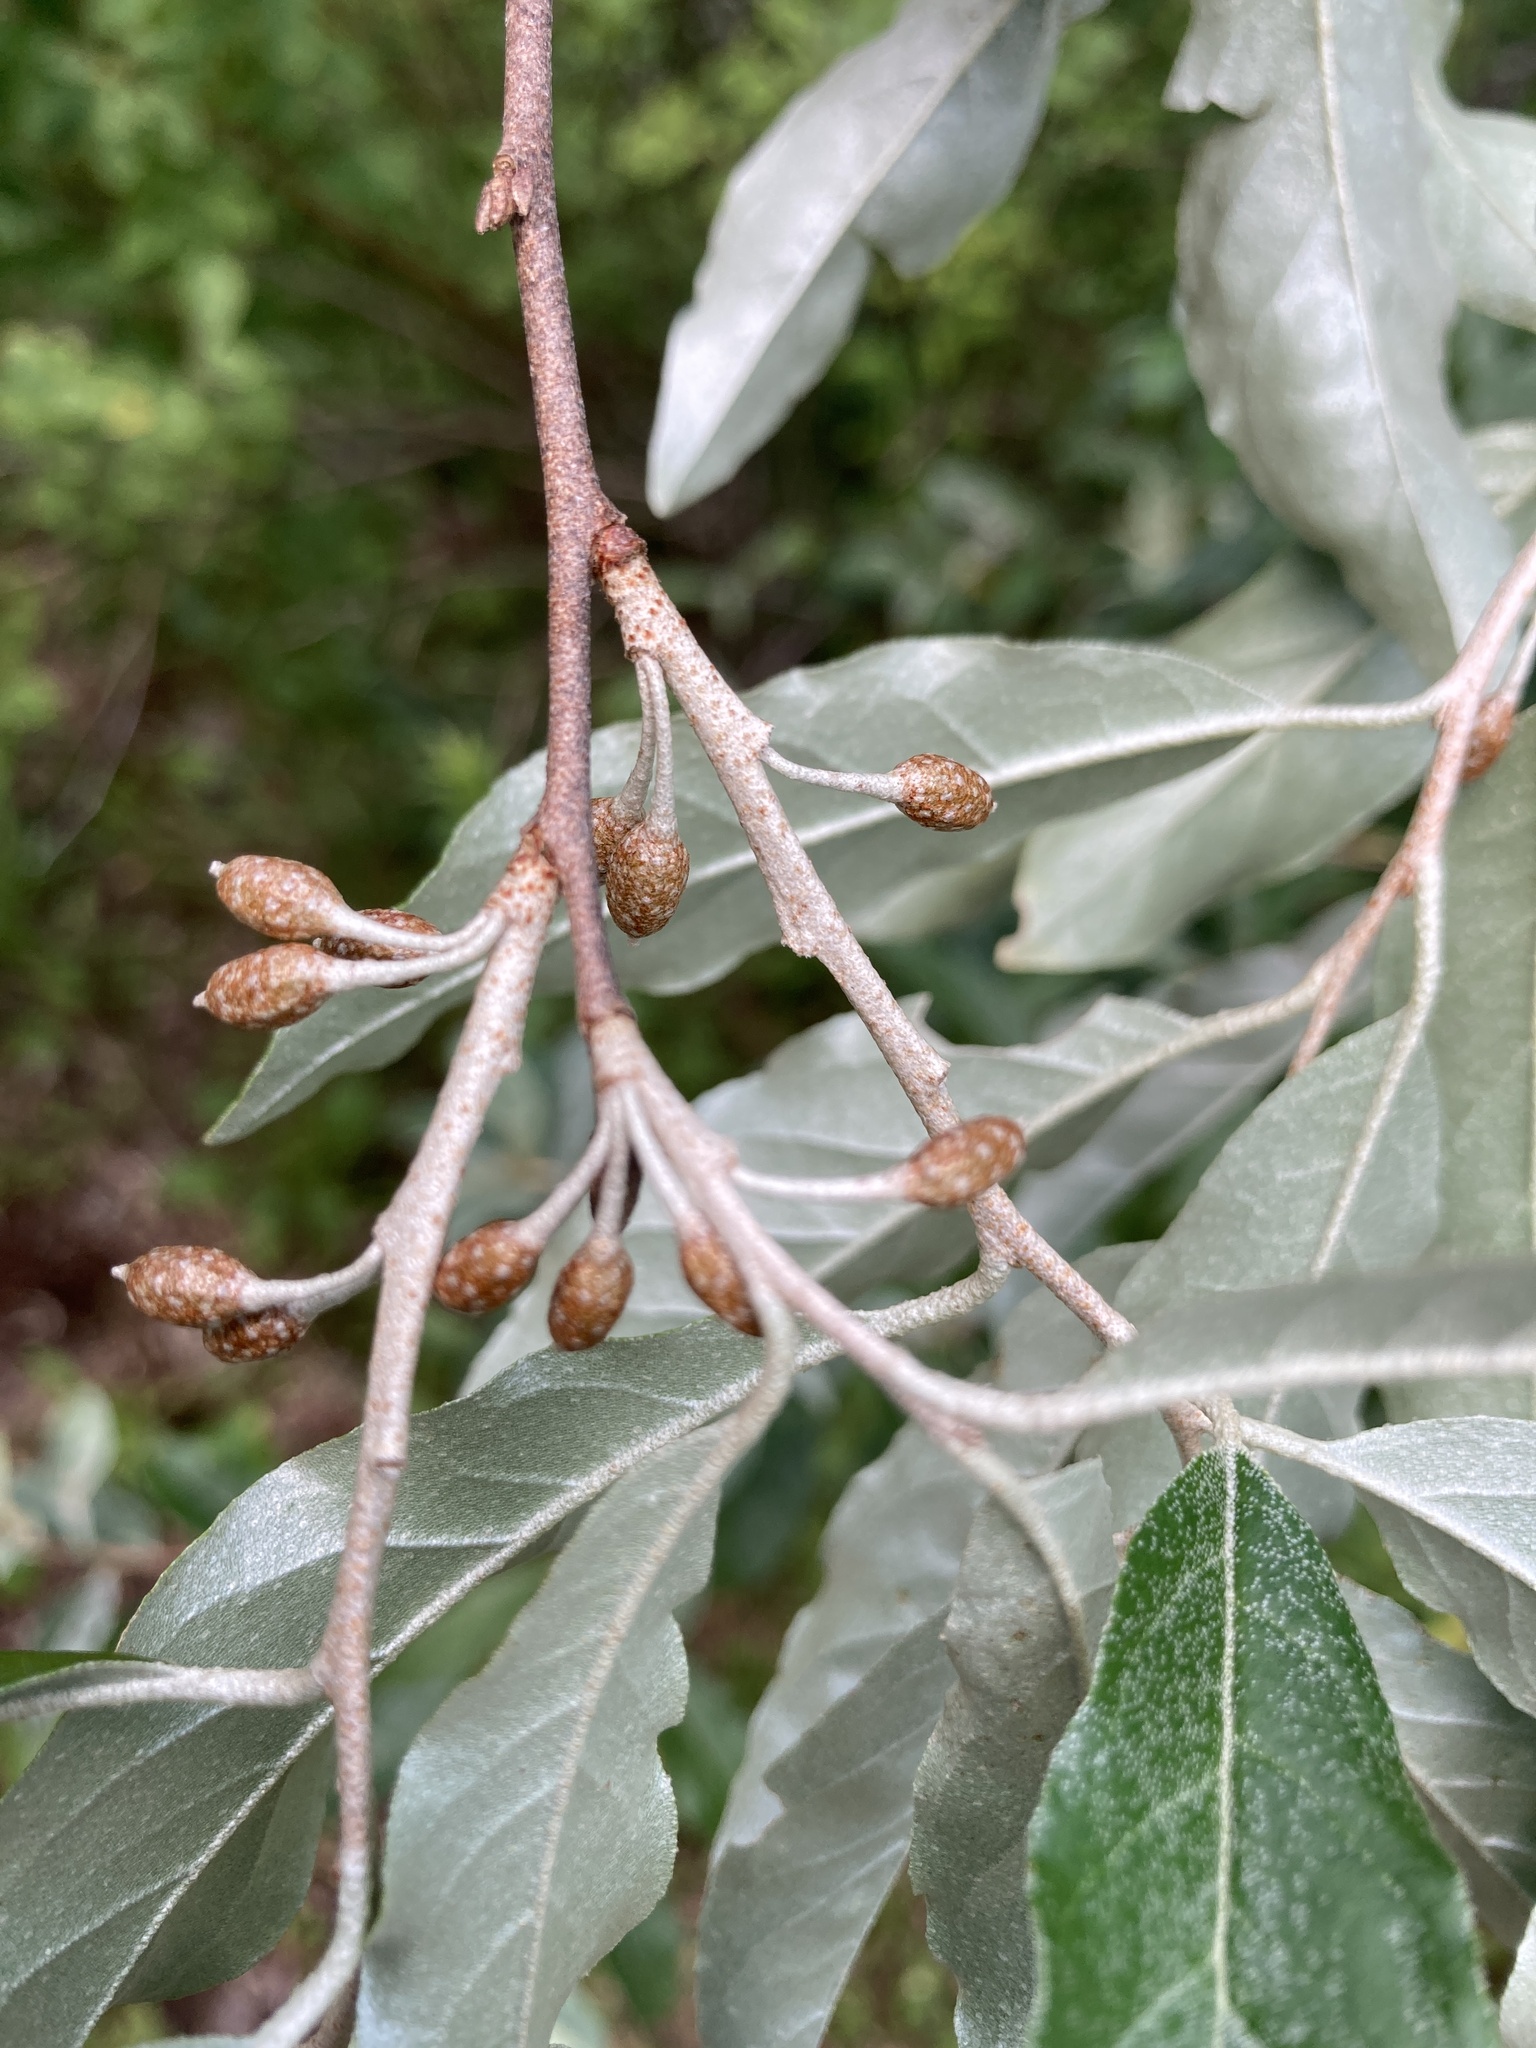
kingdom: Plantae
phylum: Tracheophyta
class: Magnoliopsida
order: Rosales
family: Elaeagnaceae
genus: Elaeagnus
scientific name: Elaeagnus umbellata
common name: Autumn olive
